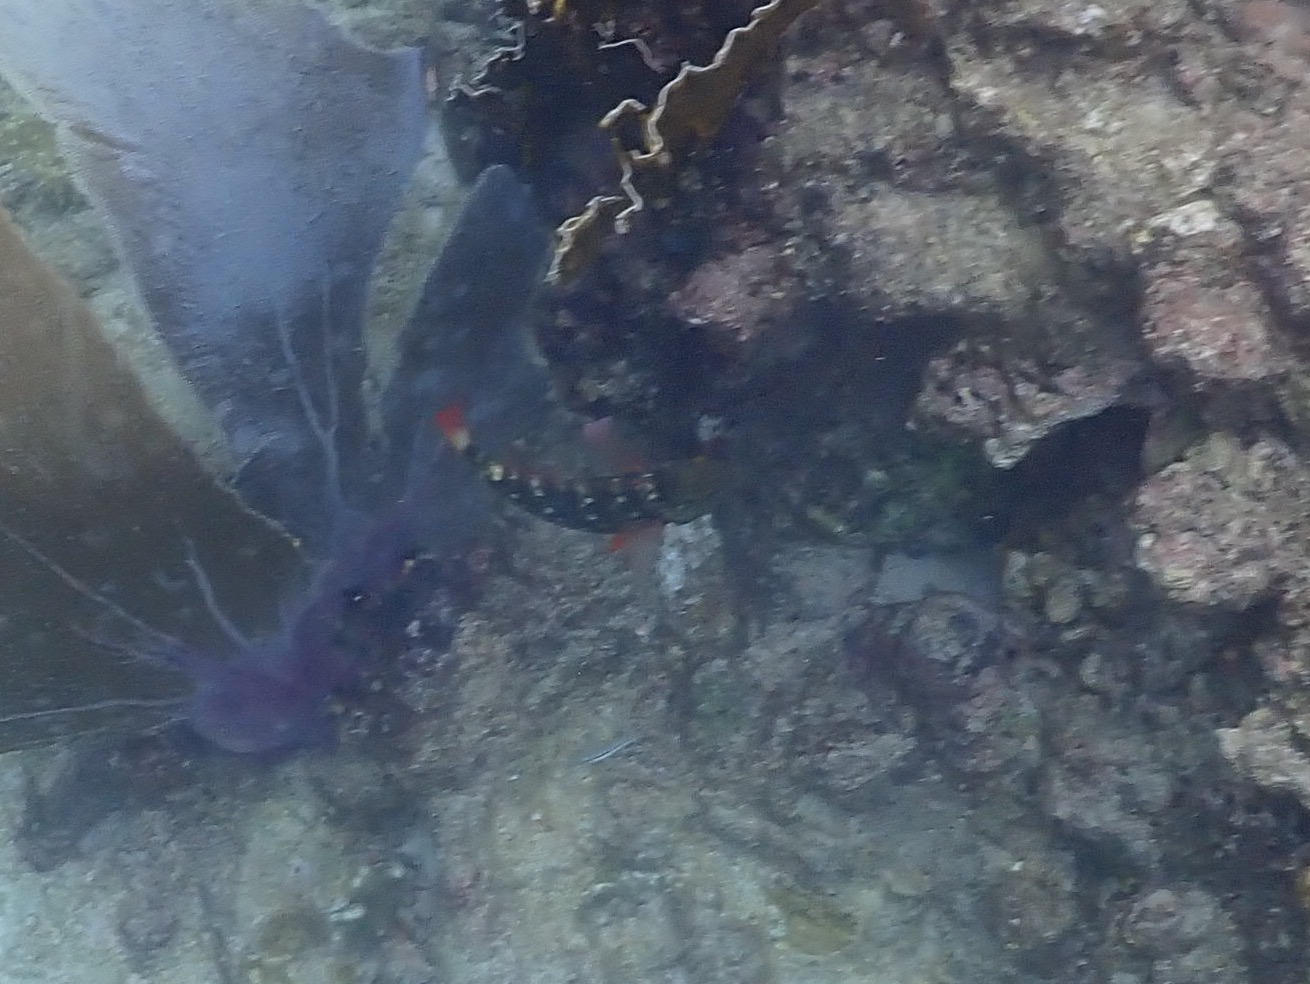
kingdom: Animalia
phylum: Chordata
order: Perciformes
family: Scaridae
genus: Sparisoma
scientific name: Sparisoma viride
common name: Stoplight parrotfish
